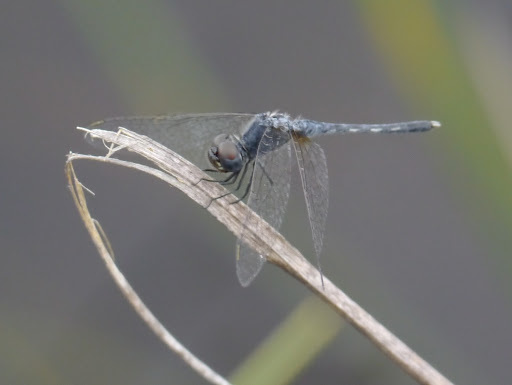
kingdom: Animalia
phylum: Arthropoda
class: Insecta
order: Odonata
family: Libellulidae
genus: Diplacodes
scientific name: Diplacodes deminuta
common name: Little percher
